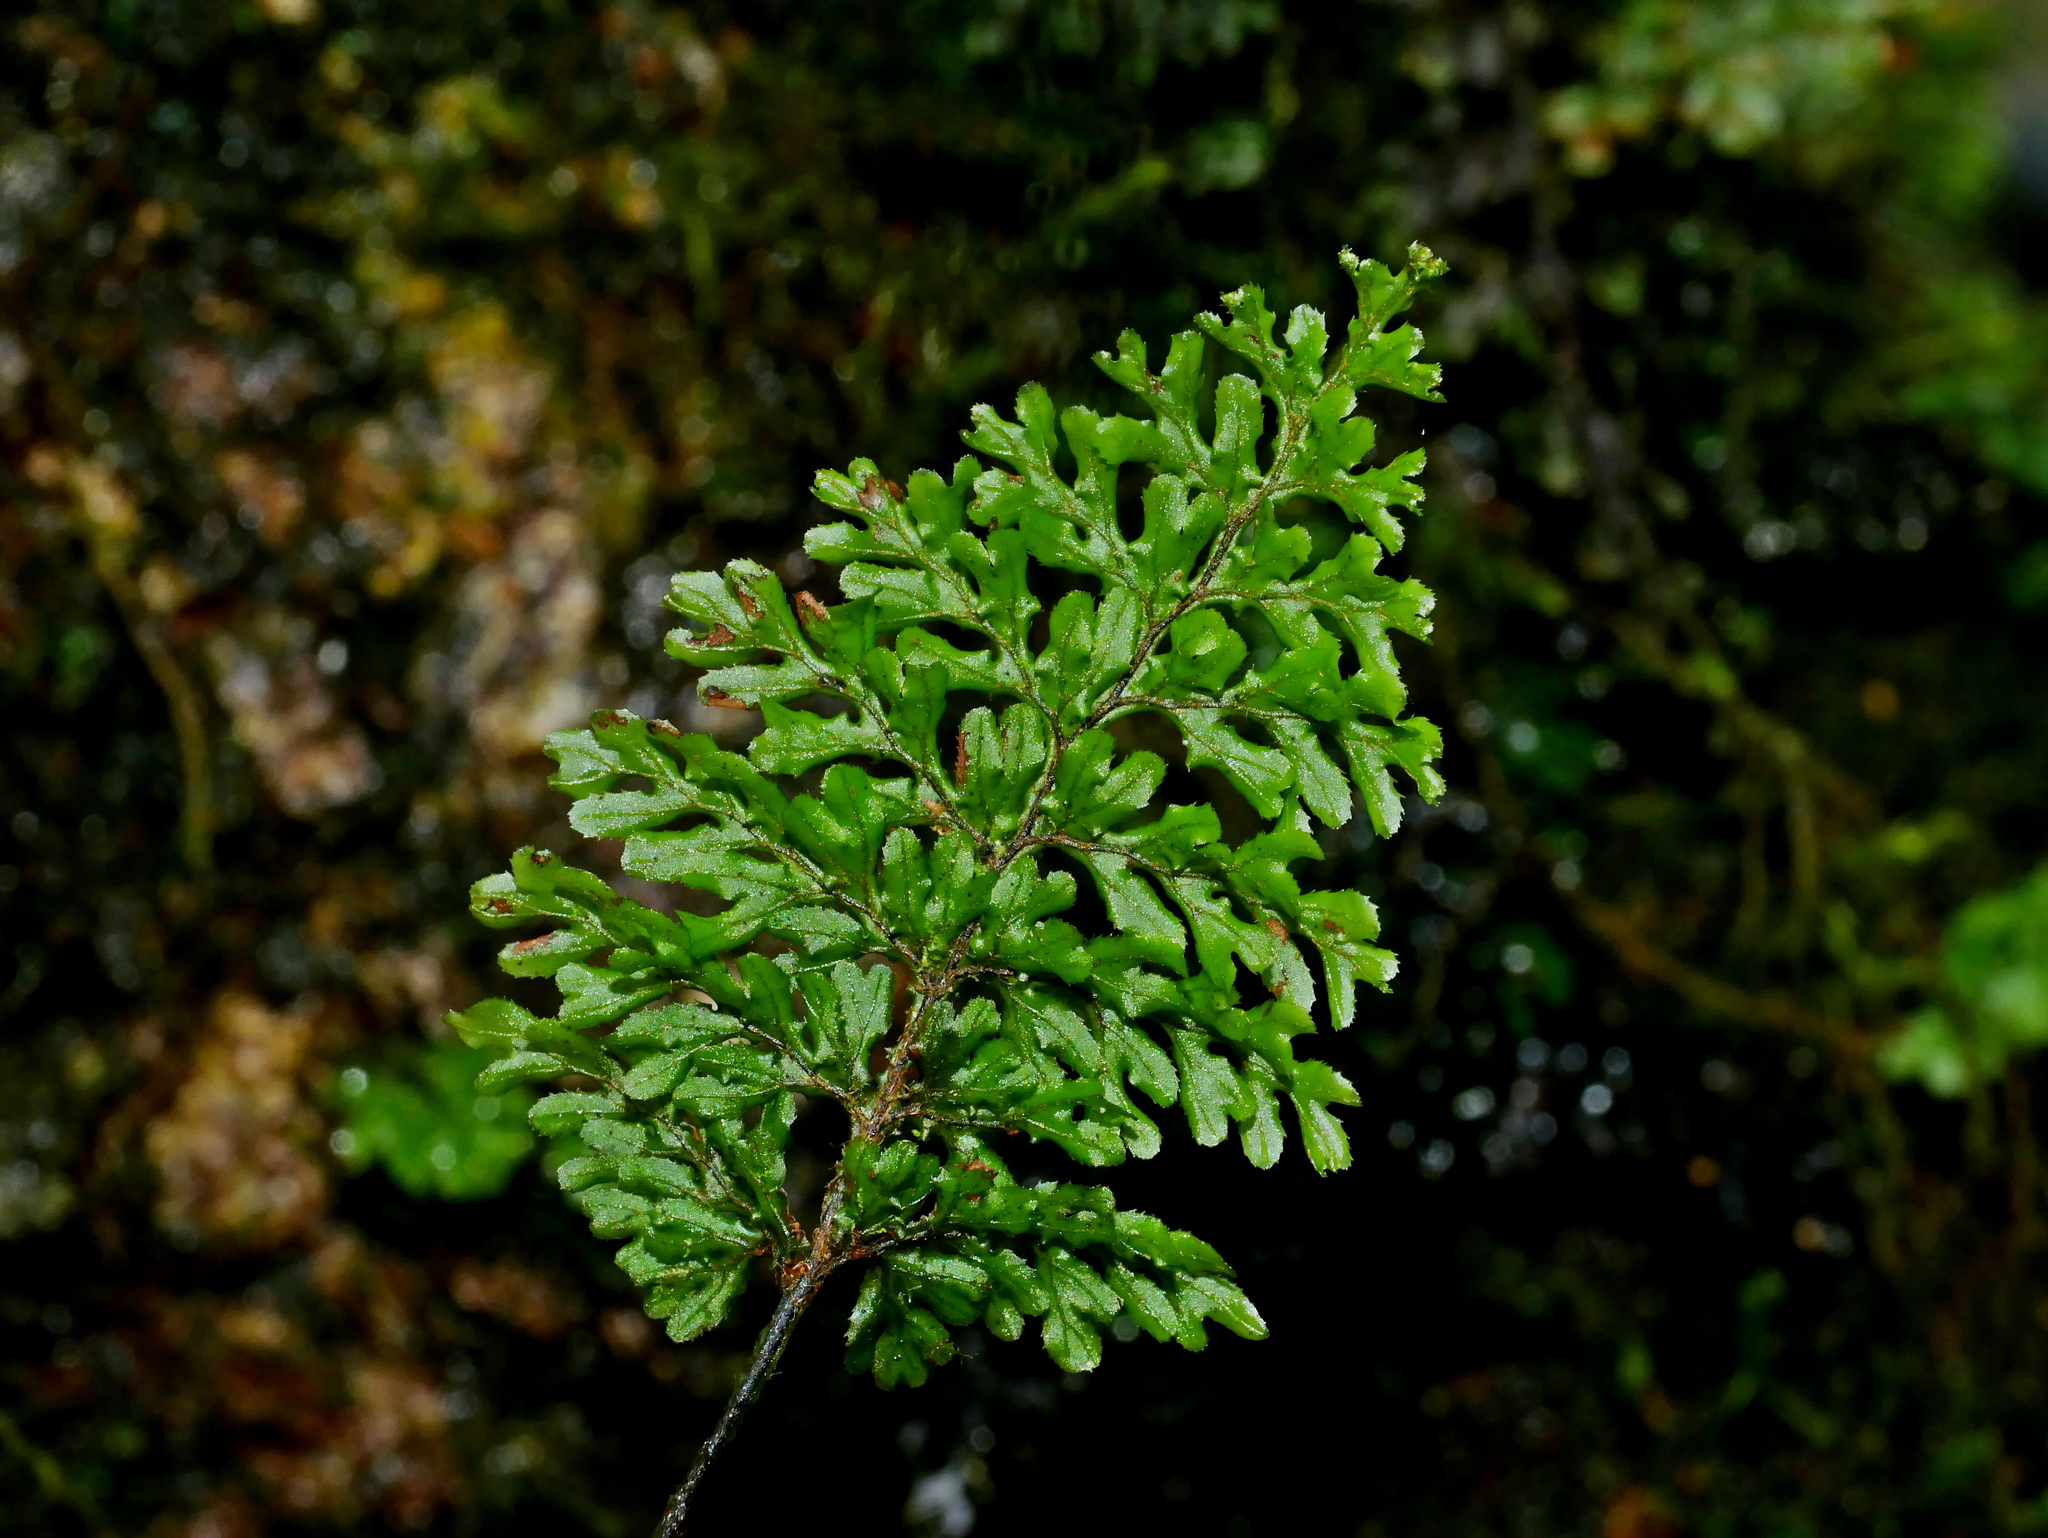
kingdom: Plantae
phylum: Tracheophyta
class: Polypodiopsida
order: Hymenophyllales
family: Hymenophyllaceae
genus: Hymenophyllum
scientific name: Hymenophyllum okadae
